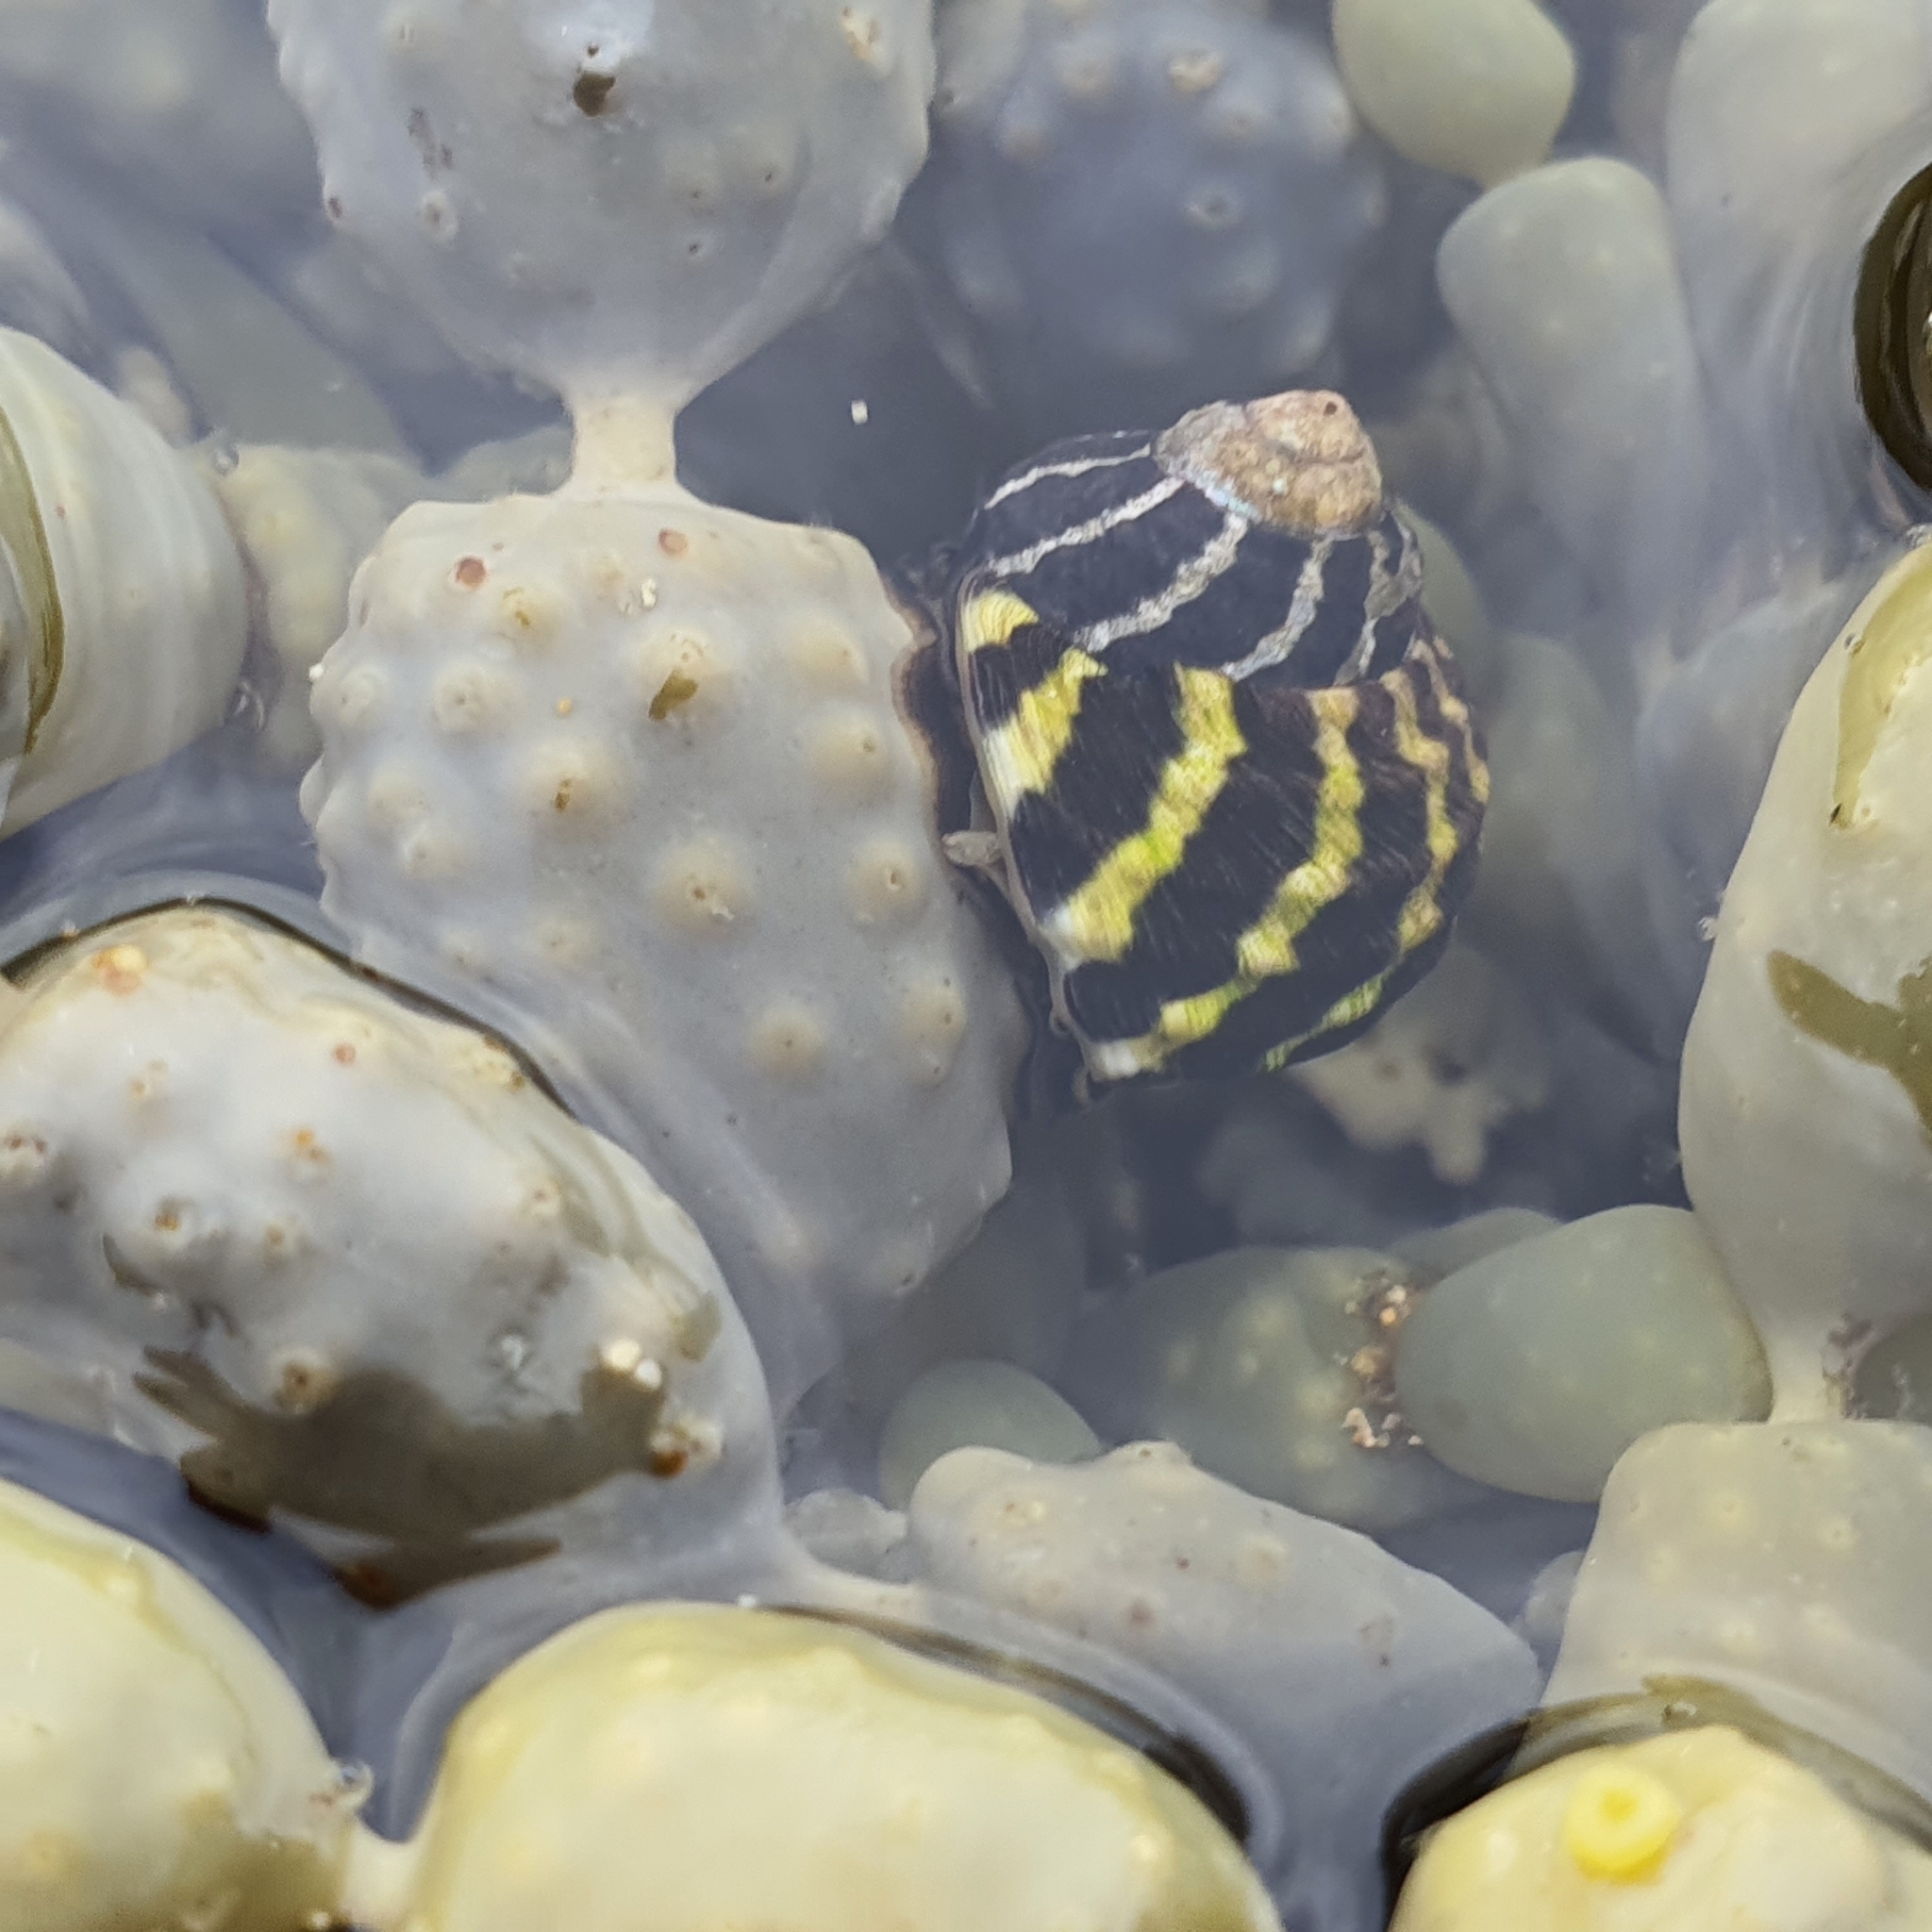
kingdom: Animalia
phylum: Mollusca
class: Gastropoda
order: Trochida
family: Trochidae
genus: Austrocochlea
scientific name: Austrocochlea porcata
